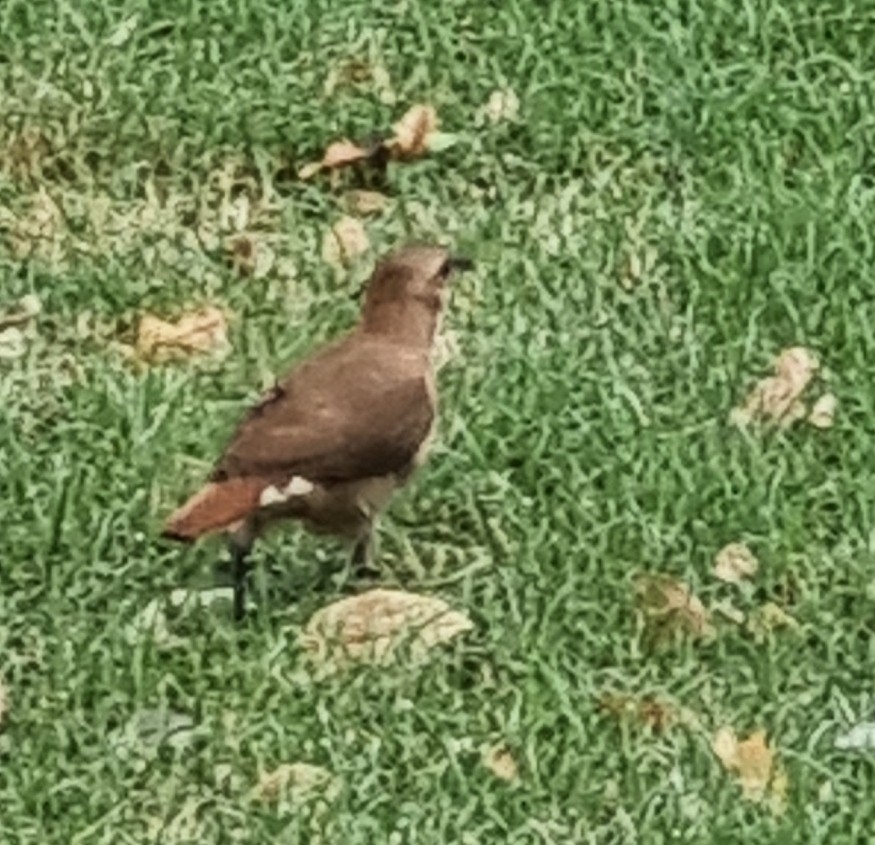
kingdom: Animalia
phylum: Chordata
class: Aves
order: Passeriformes
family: Furnariidae
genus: Furnarius
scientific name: Furnarius rufus
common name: Rufous hornero
